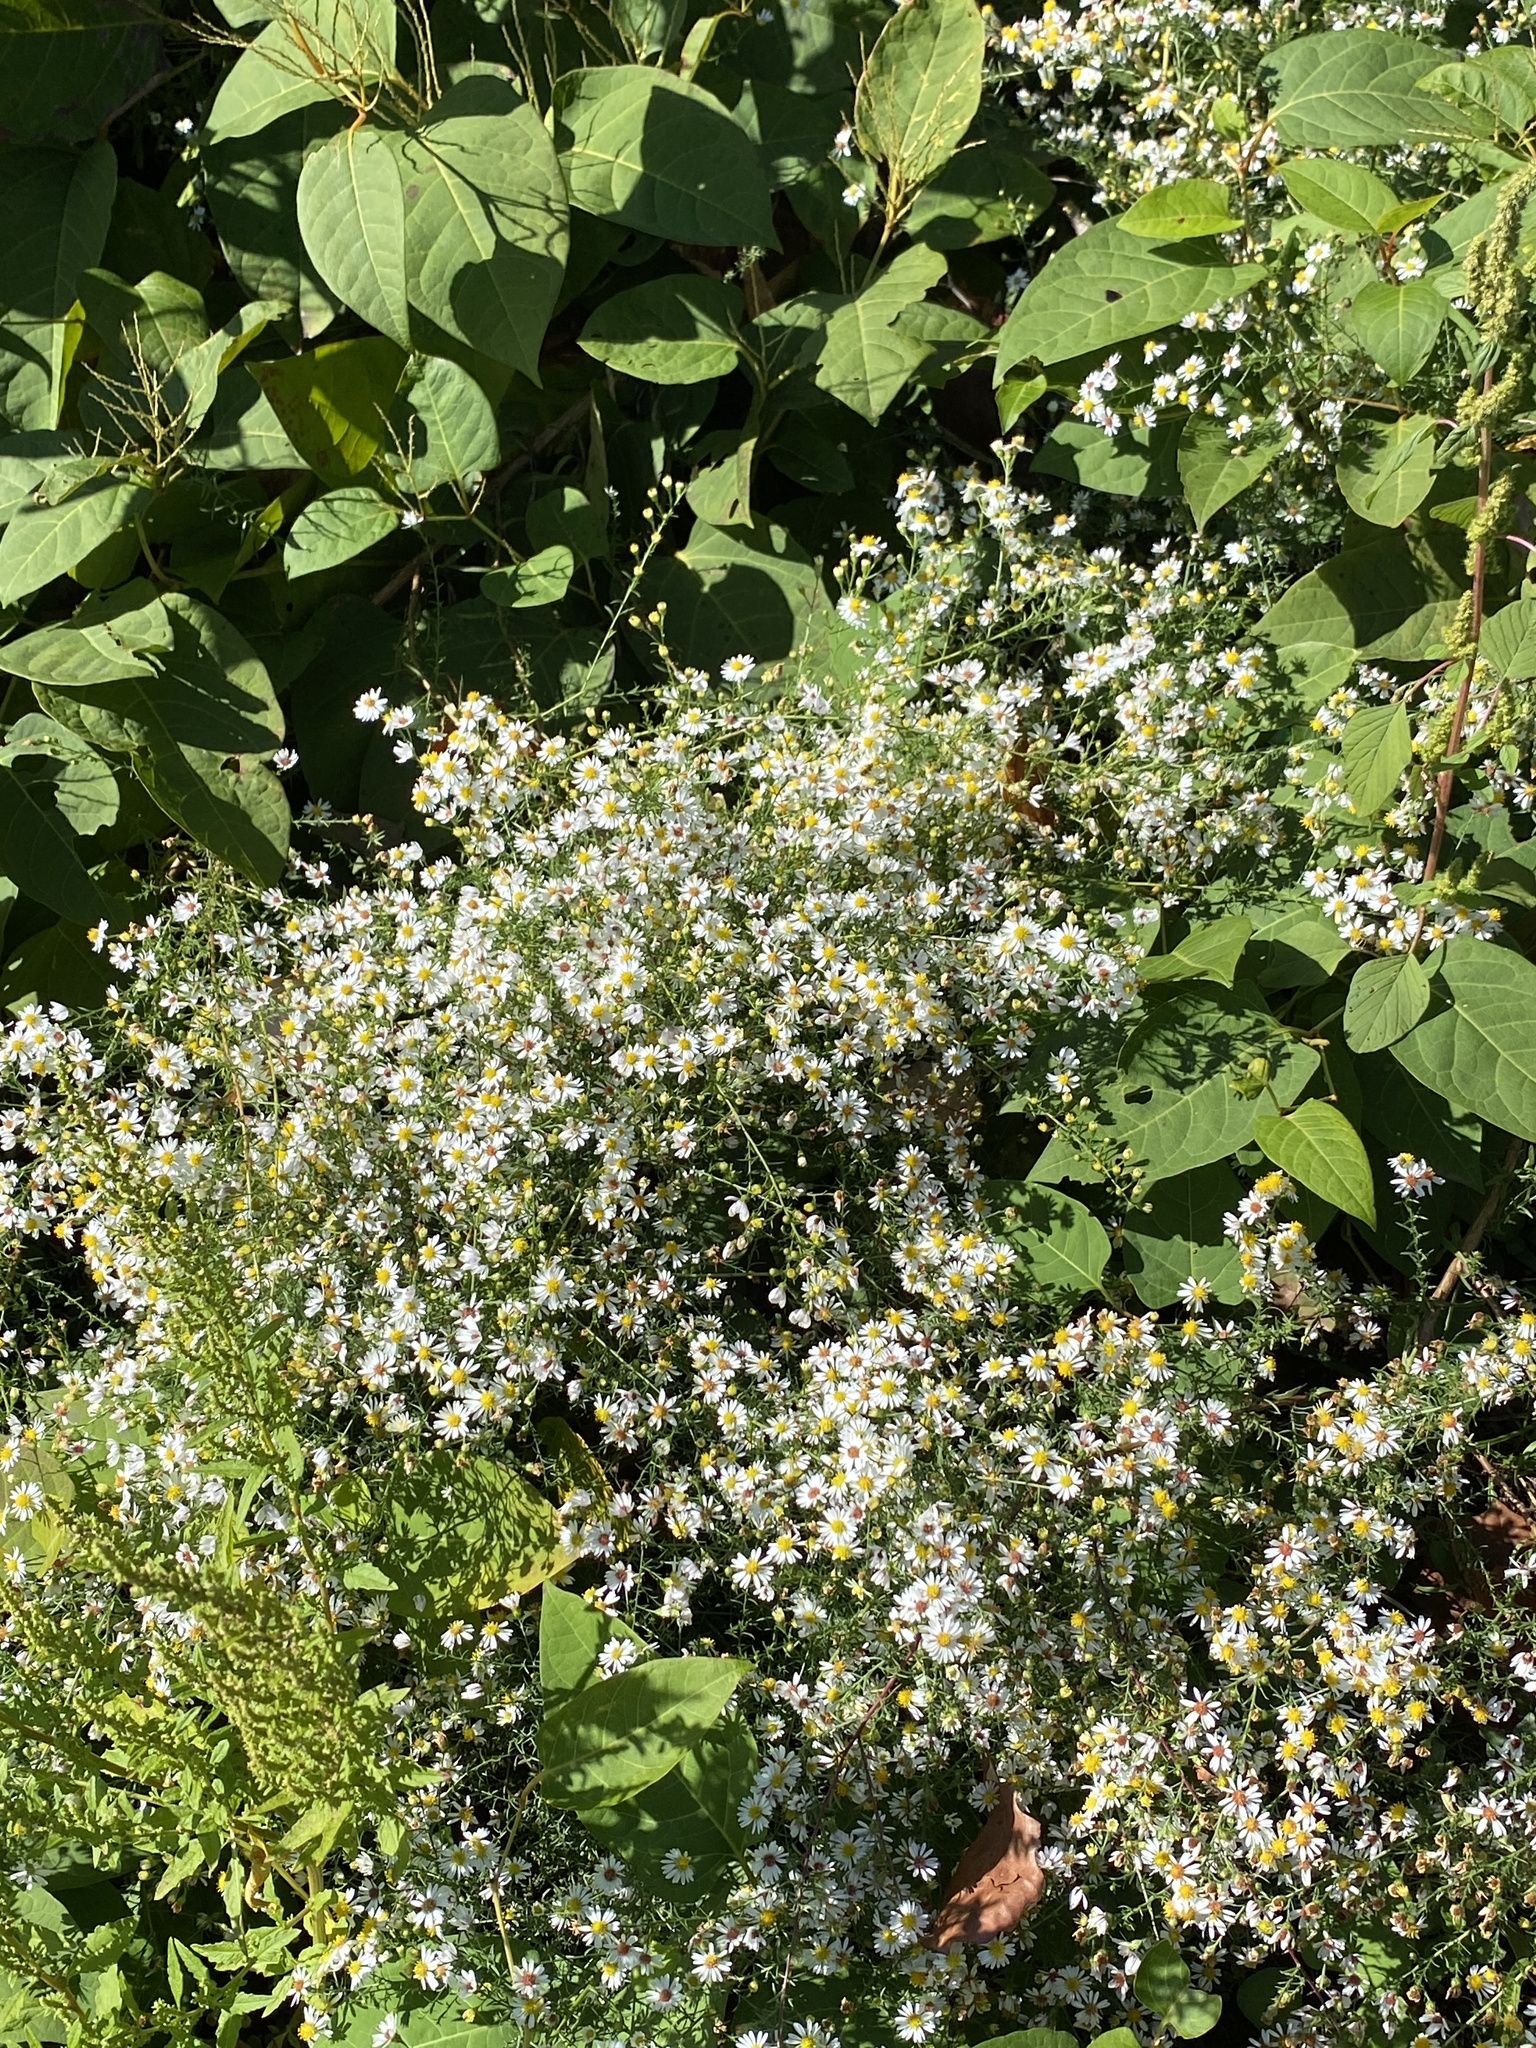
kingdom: Plantae
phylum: Tracheophyta
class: Magnoliopsida
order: Asterales
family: Asteraceae
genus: Symphyotrichum
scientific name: Symphyotrichum pilosum
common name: Awl aster
